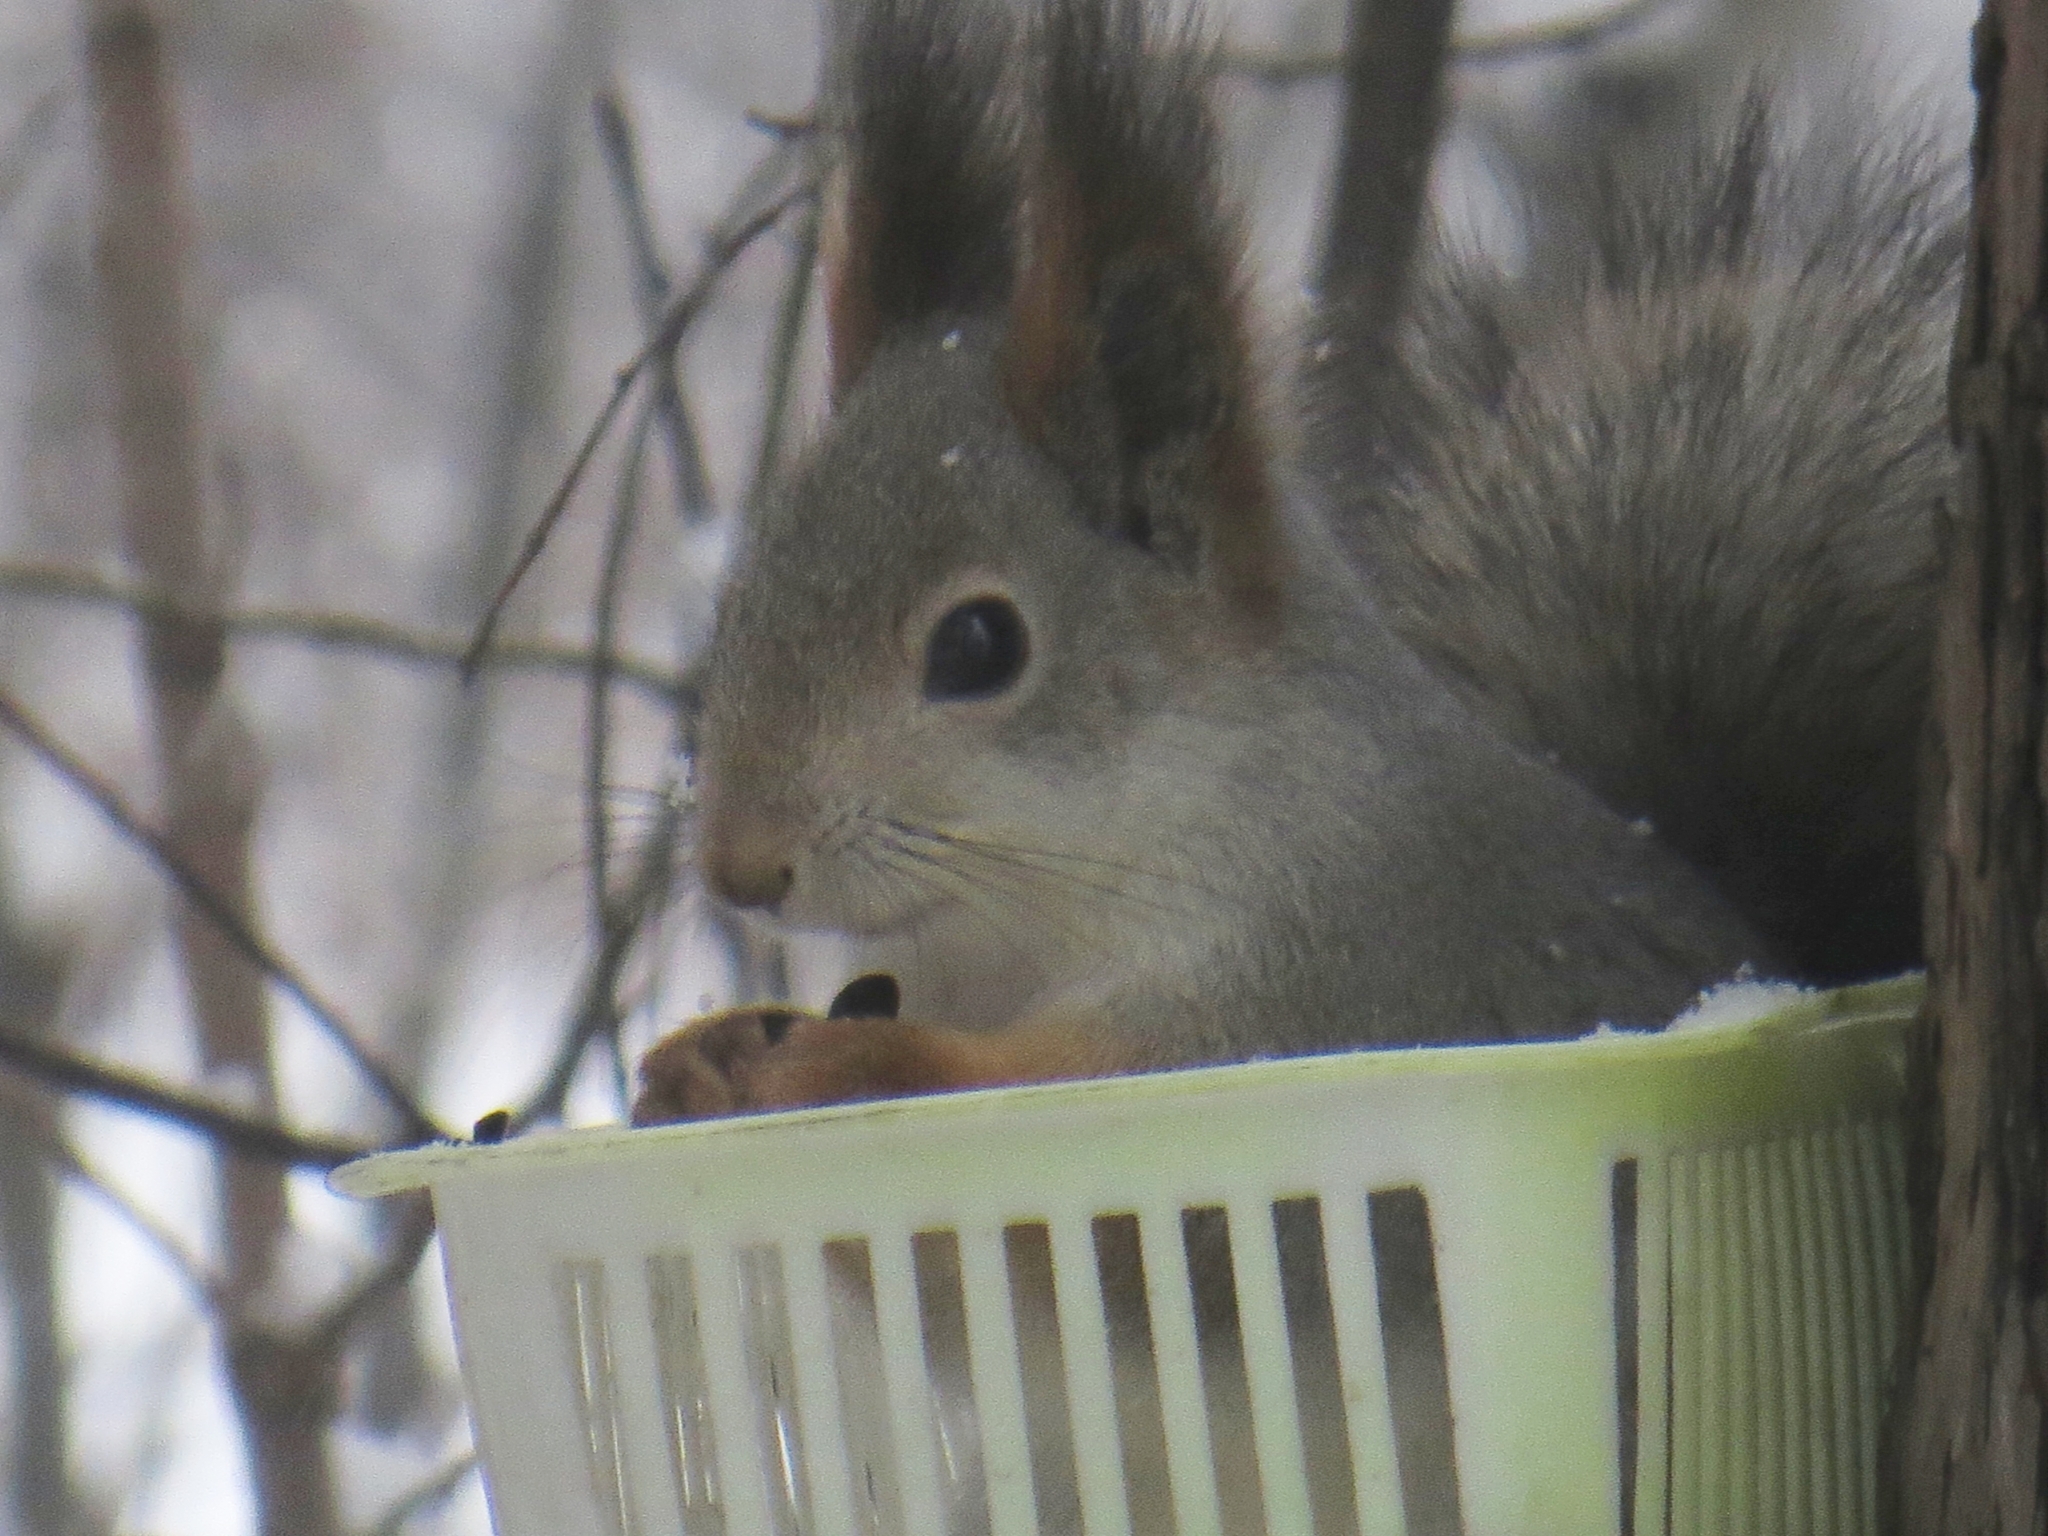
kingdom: Animalia
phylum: Chordata
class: Mammalia
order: Rodentia
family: Sciuridae
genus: Sciurus
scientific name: Sciurus vulgaris
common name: Eurasian red squirrel
